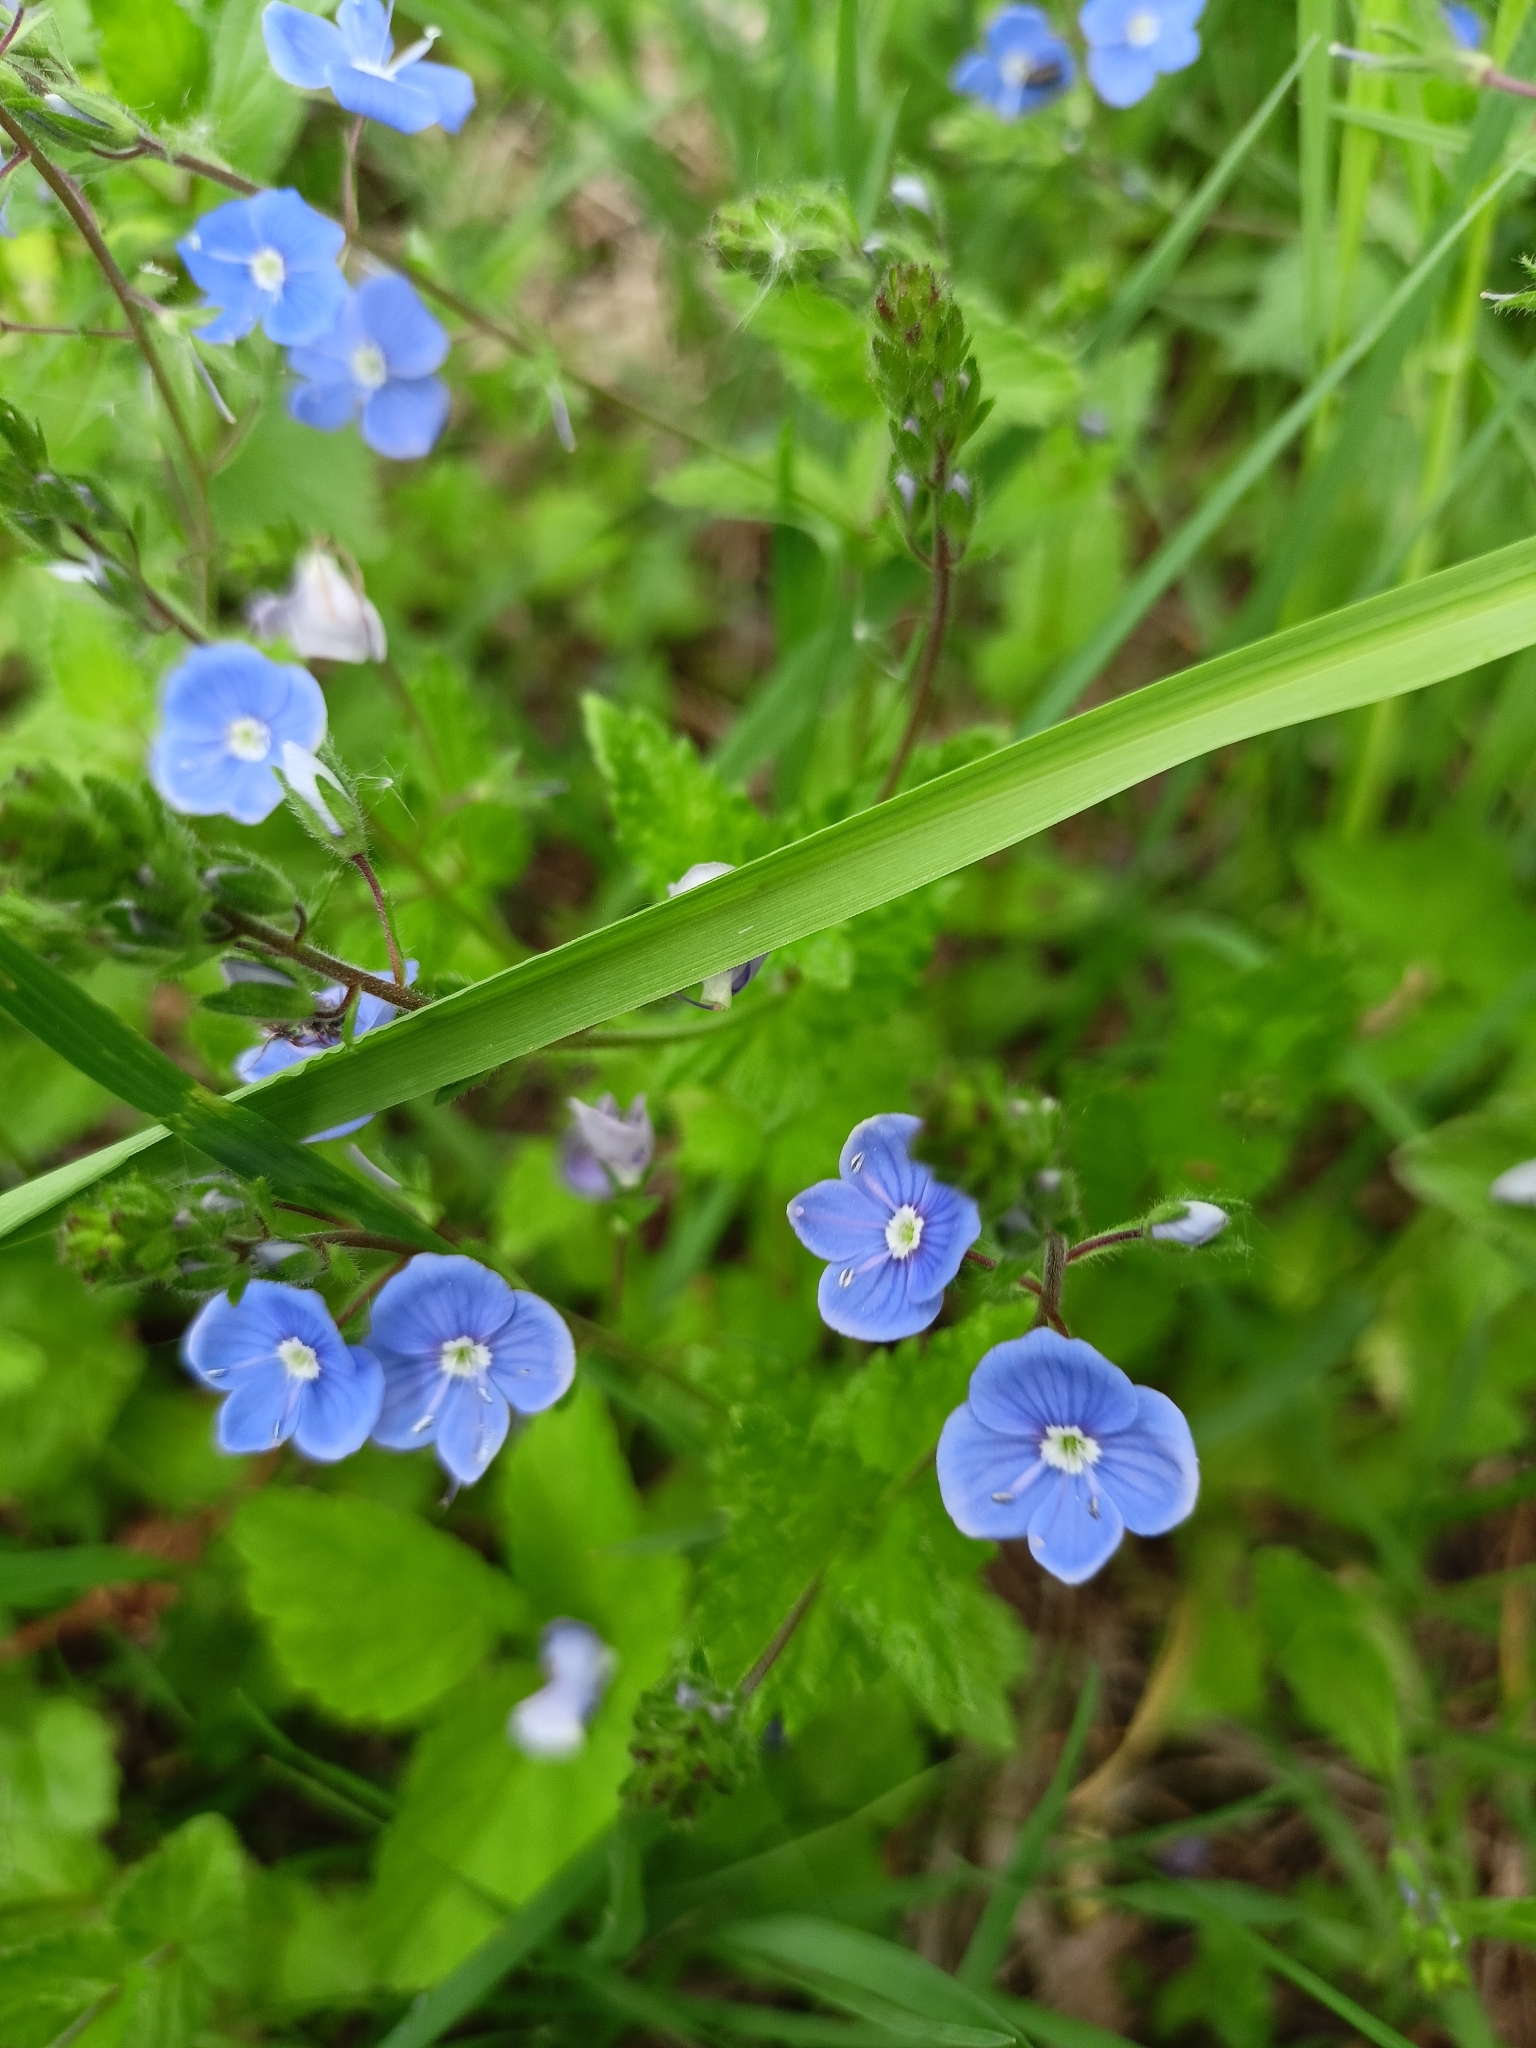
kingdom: Plantae
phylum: Tracheophyta
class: Magnoliopsida
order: Lamiales
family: Plantaginaceae
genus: Veronica
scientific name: Veronica chamaedrys
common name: Germander speedwell
